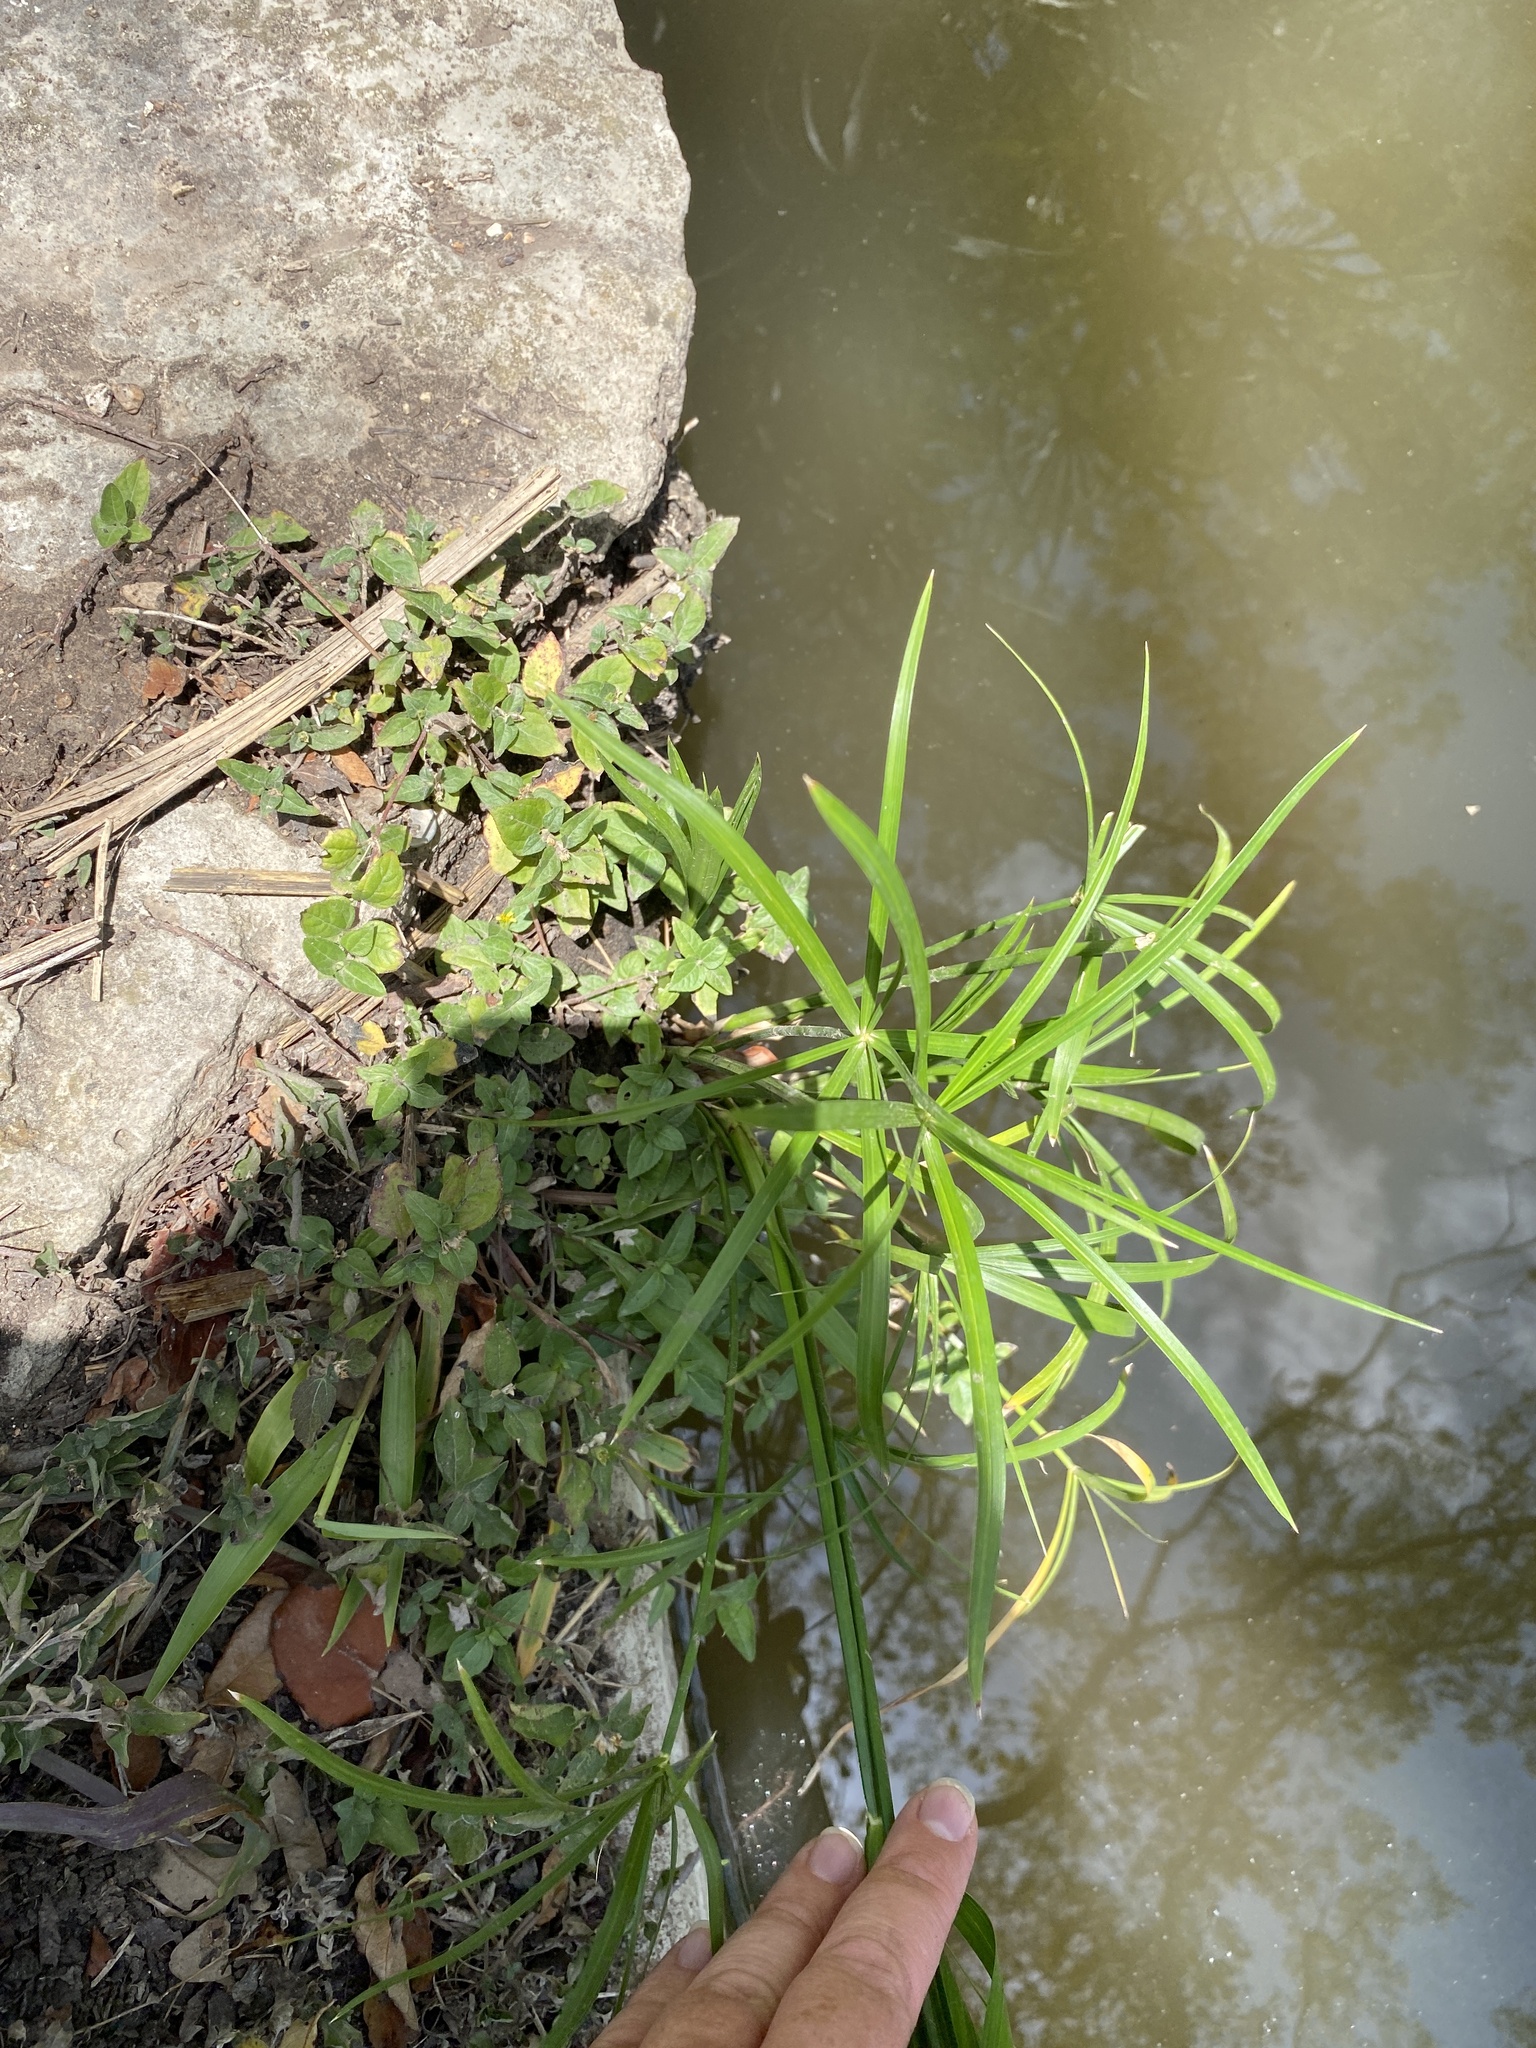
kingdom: Plantae
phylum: Tracheophyta
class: Liliopsida
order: Poales
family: Cyperaceae
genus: Cyperus
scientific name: Cyperus alternifolius
